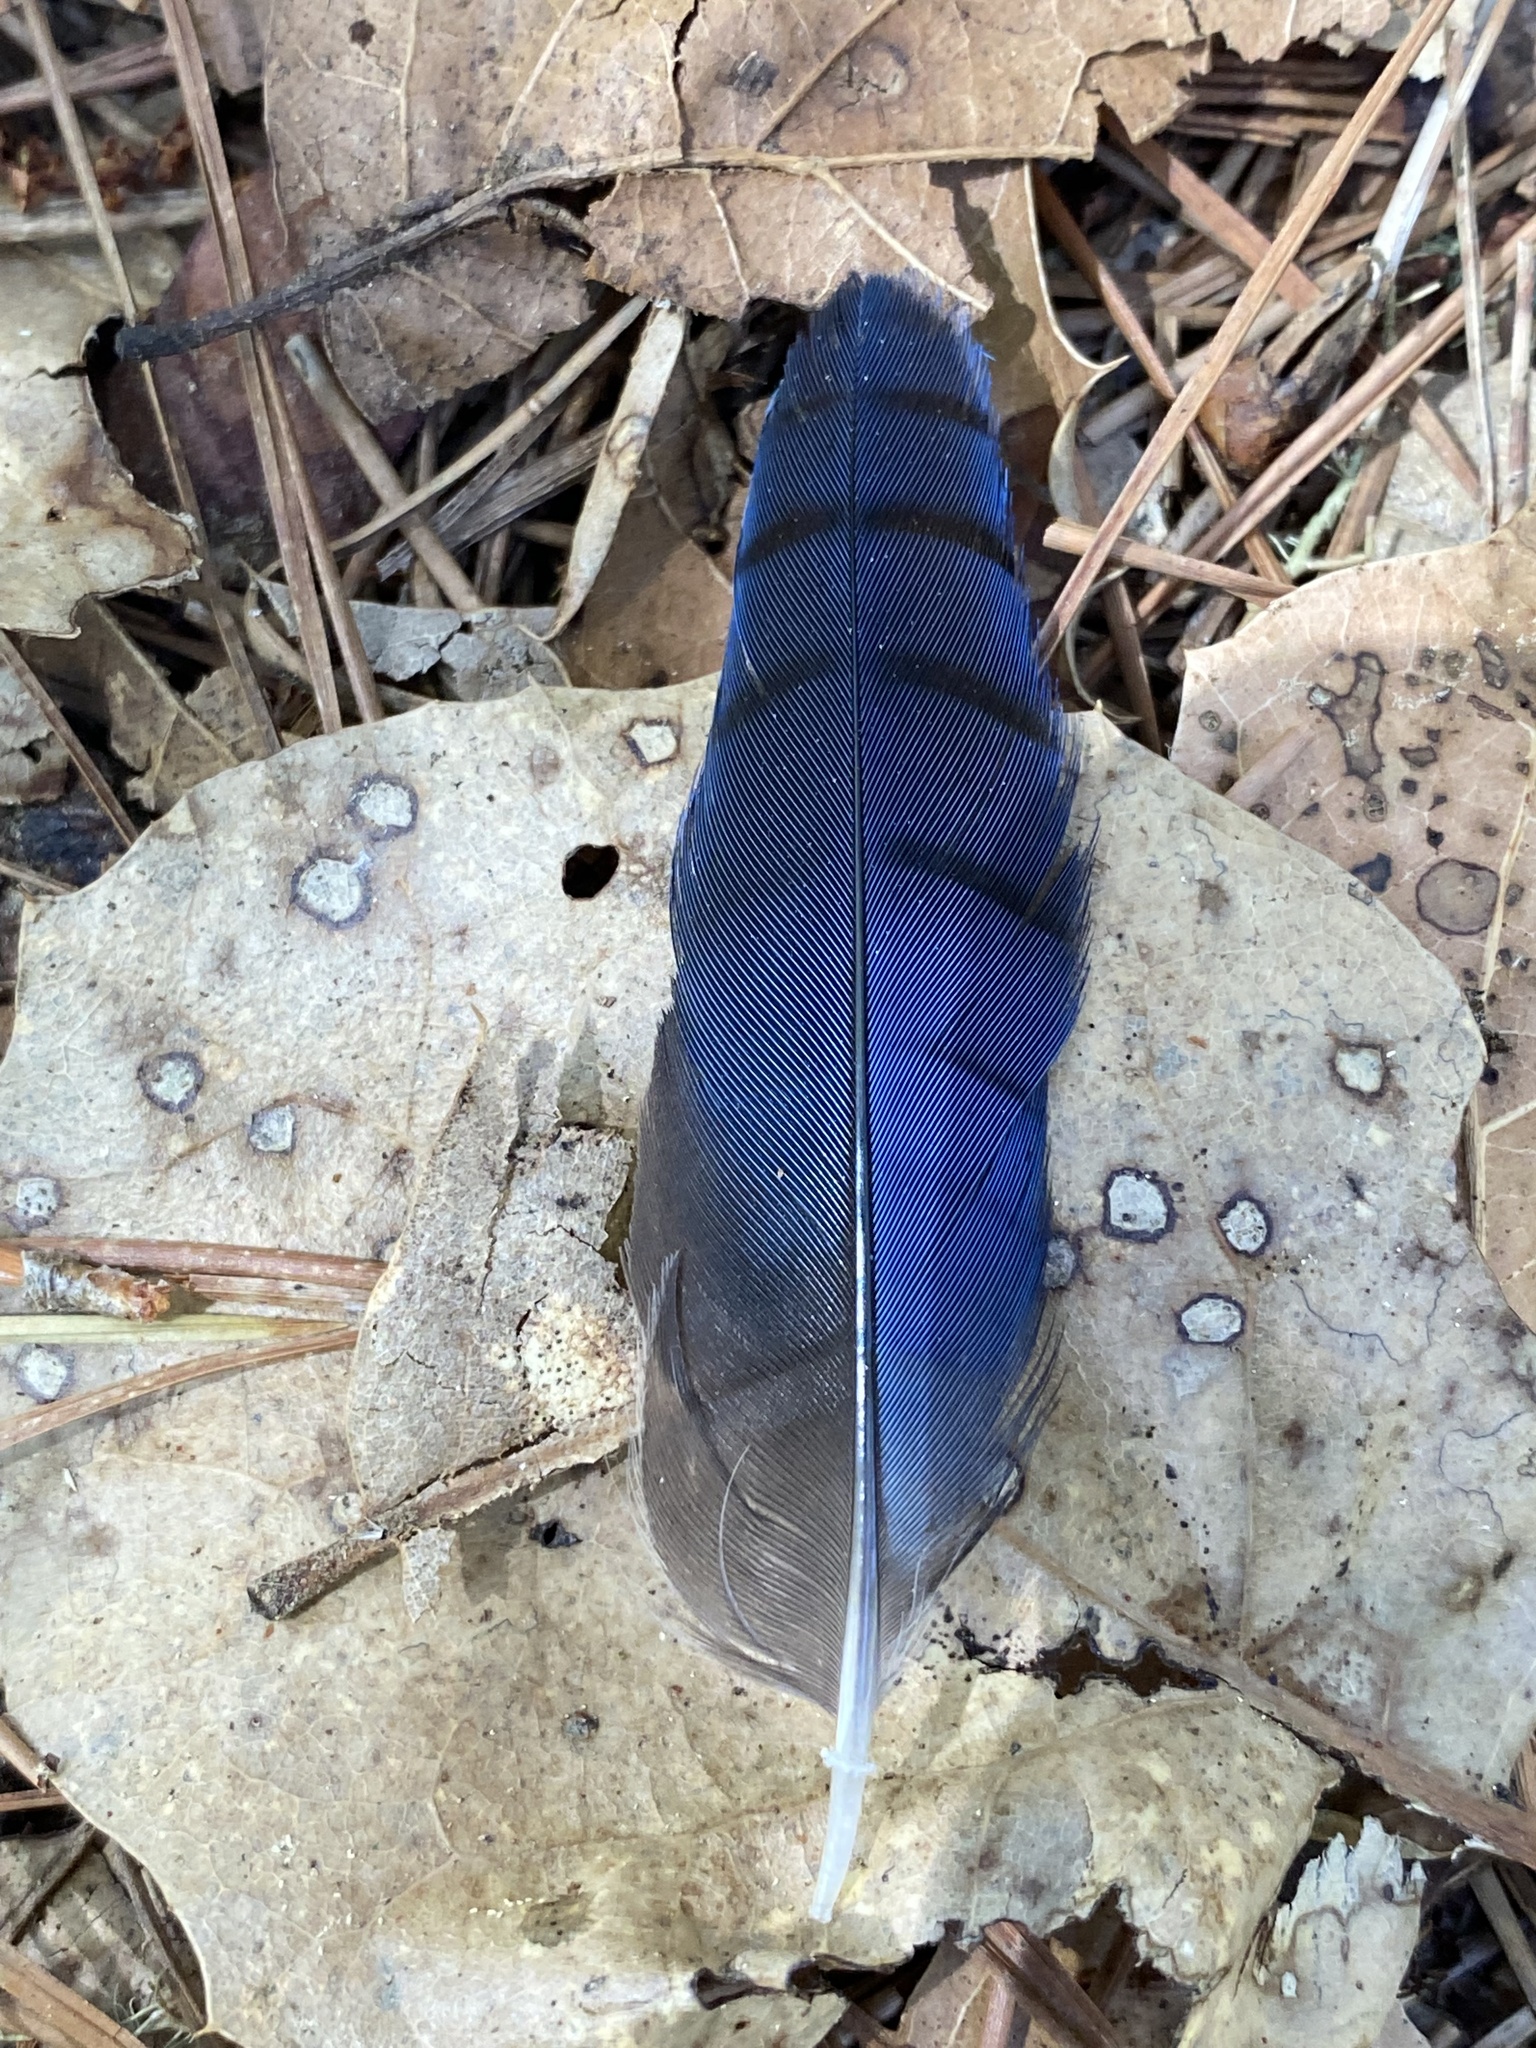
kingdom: Animalia
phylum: Chordata
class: Aves
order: Passeriformes
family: Corvidae
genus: Cyanocitta
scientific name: Cyanocitta stelleri
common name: Steller's jay
